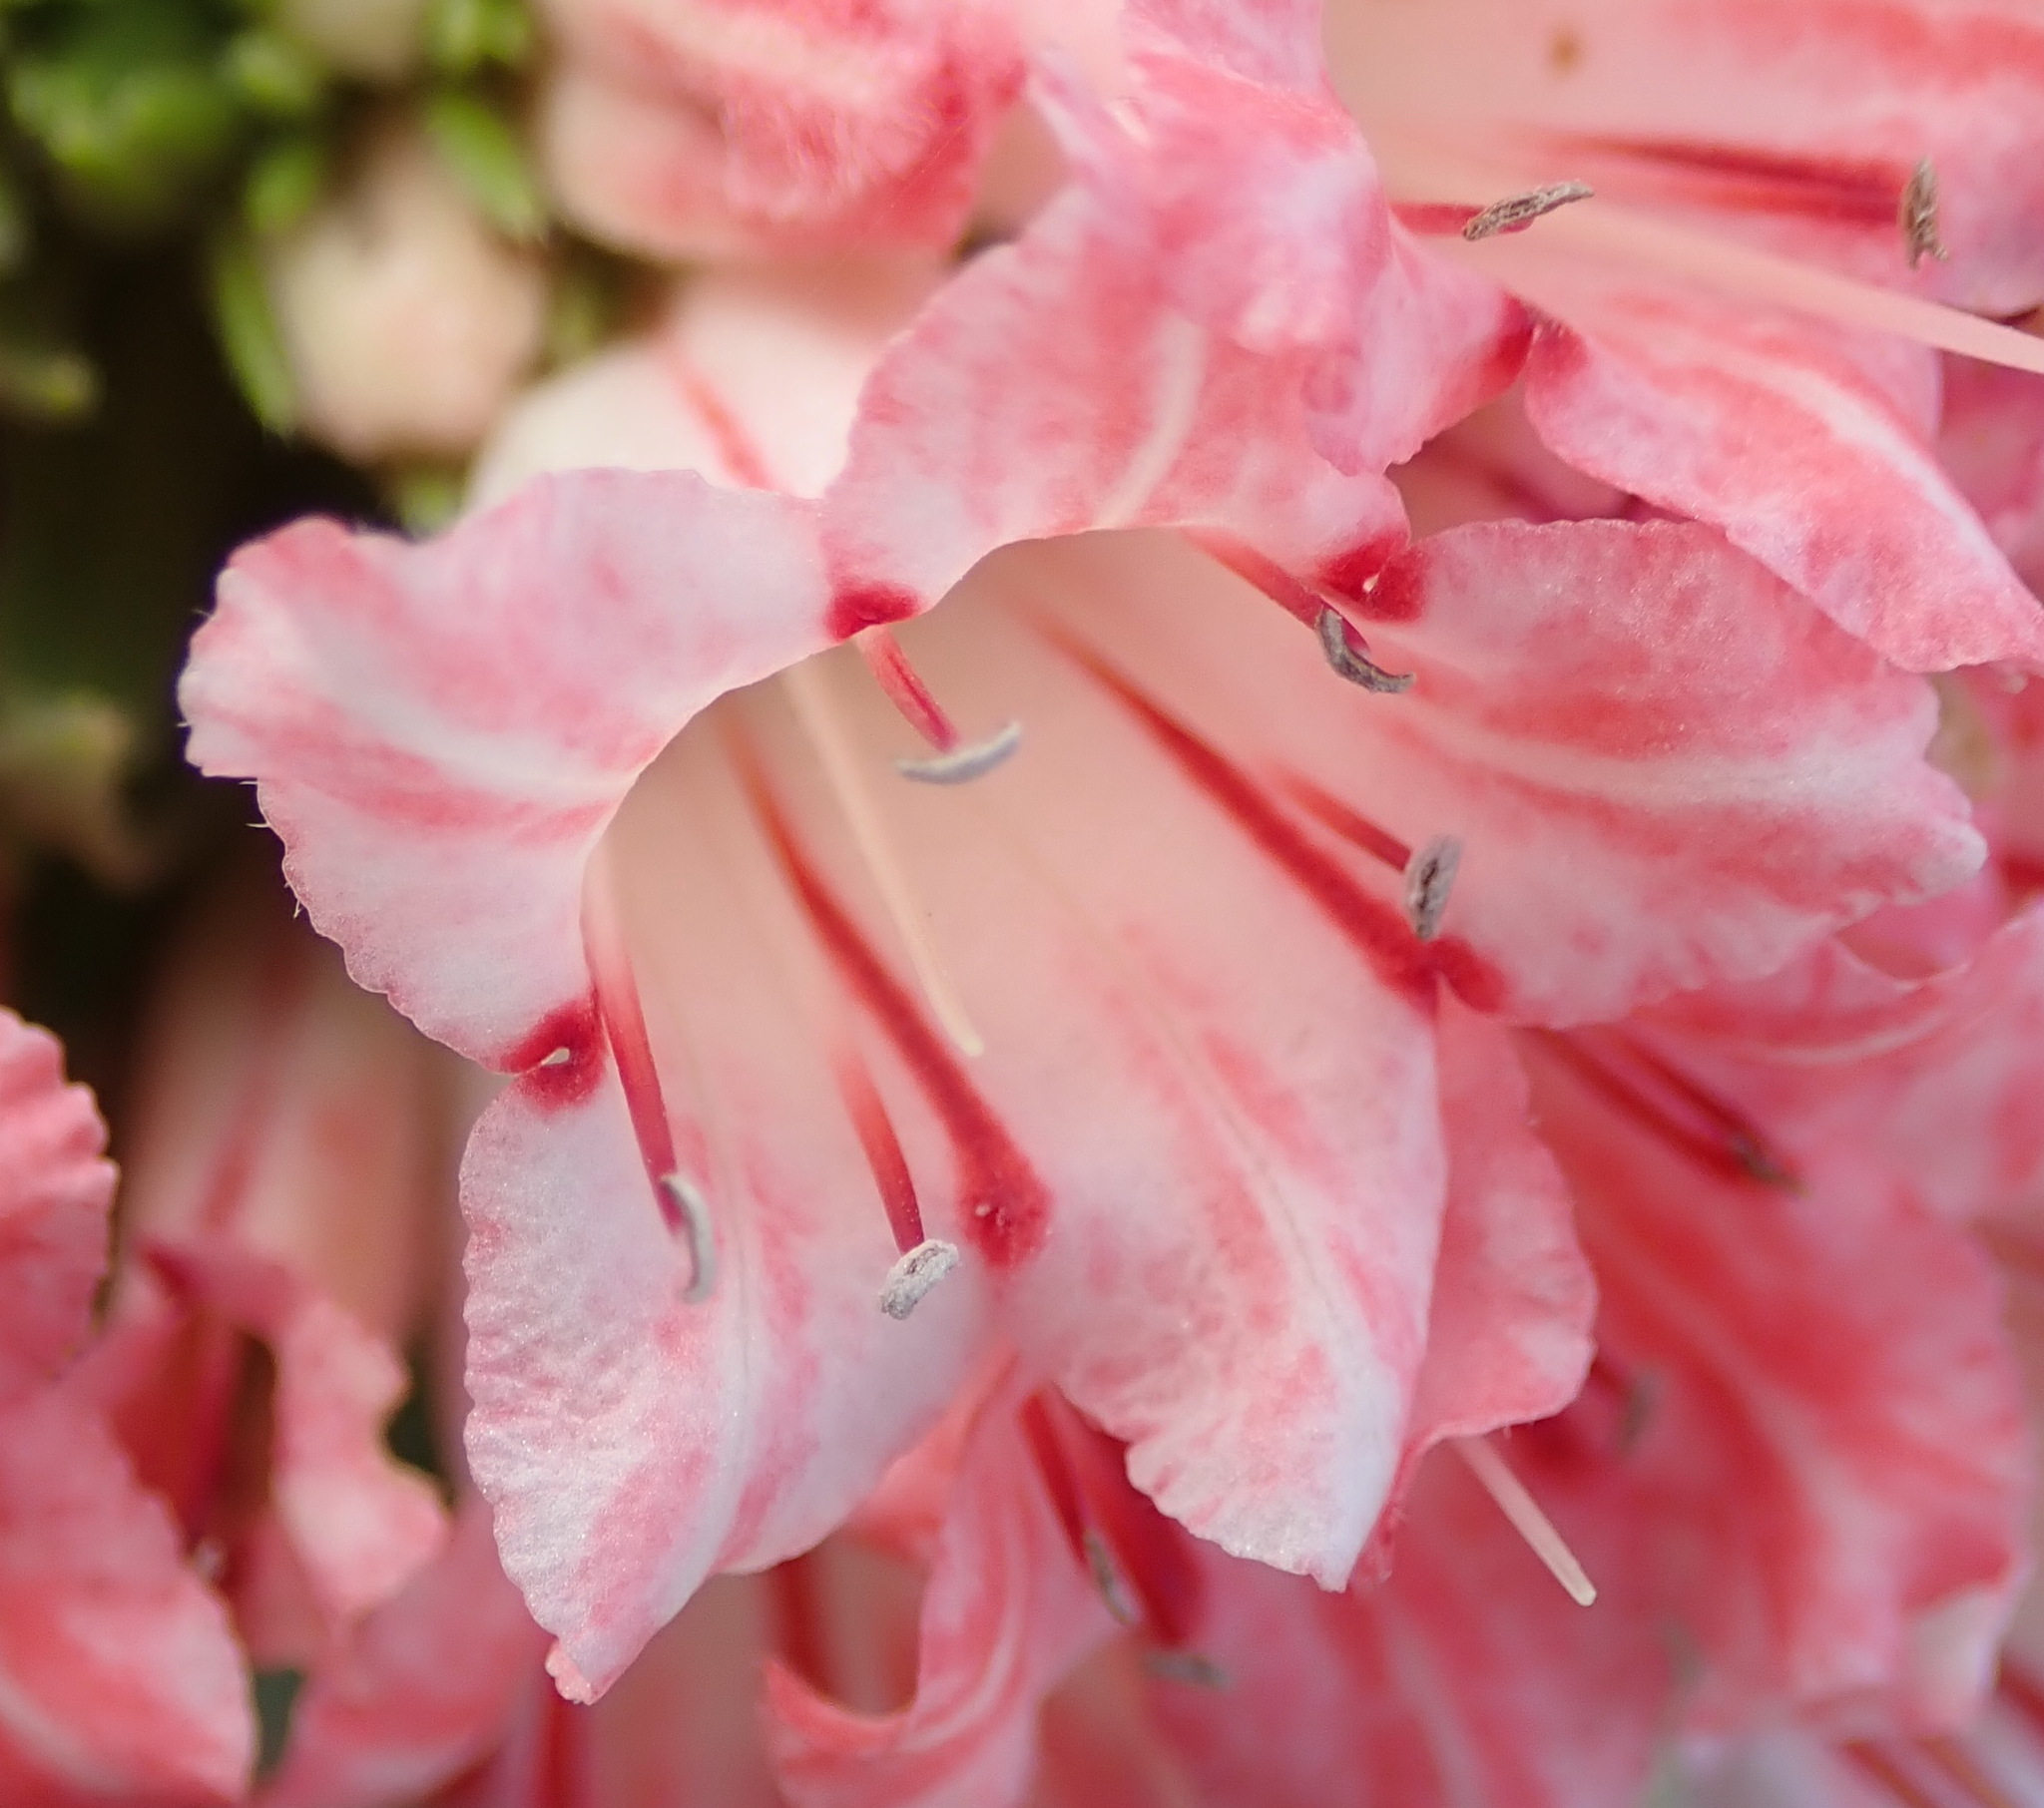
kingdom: Plantae
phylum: Tracheophyta
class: Magnoliopsida
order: Boraginales
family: Boraginaceae
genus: Lobostemon
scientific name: Lobostemon belliformis
